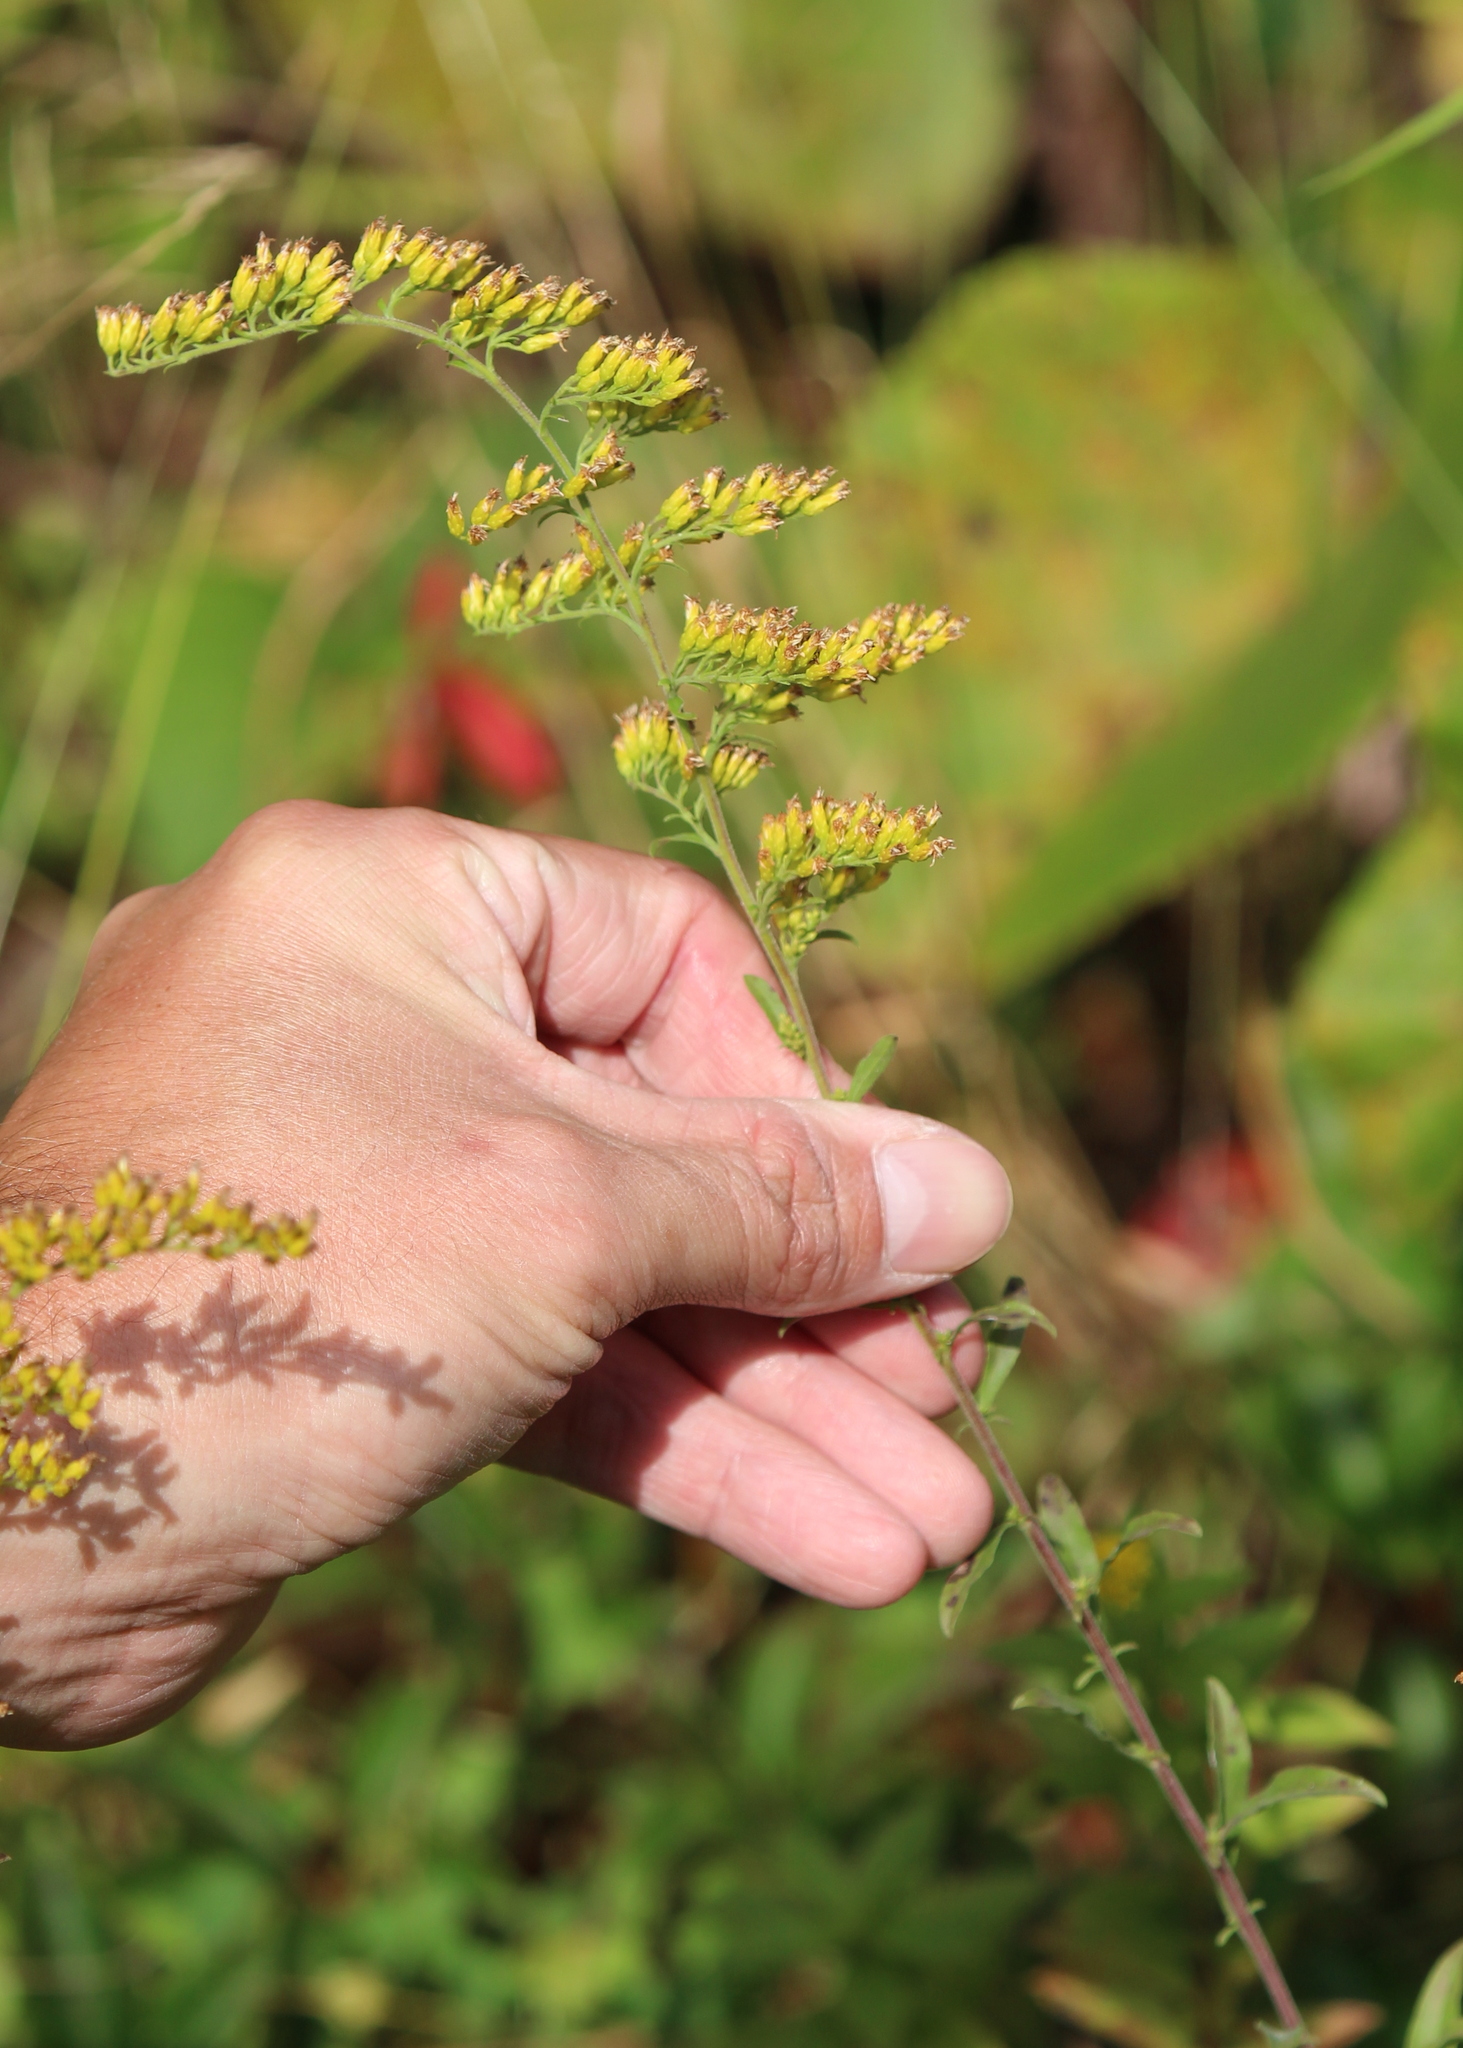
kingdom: Plantae
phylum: Tracheophyta
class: Magnoliopsida
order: Asterales
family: Asteraceae
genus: Solidago
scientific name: Solidago nemoralis
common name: Grey goldenrod
